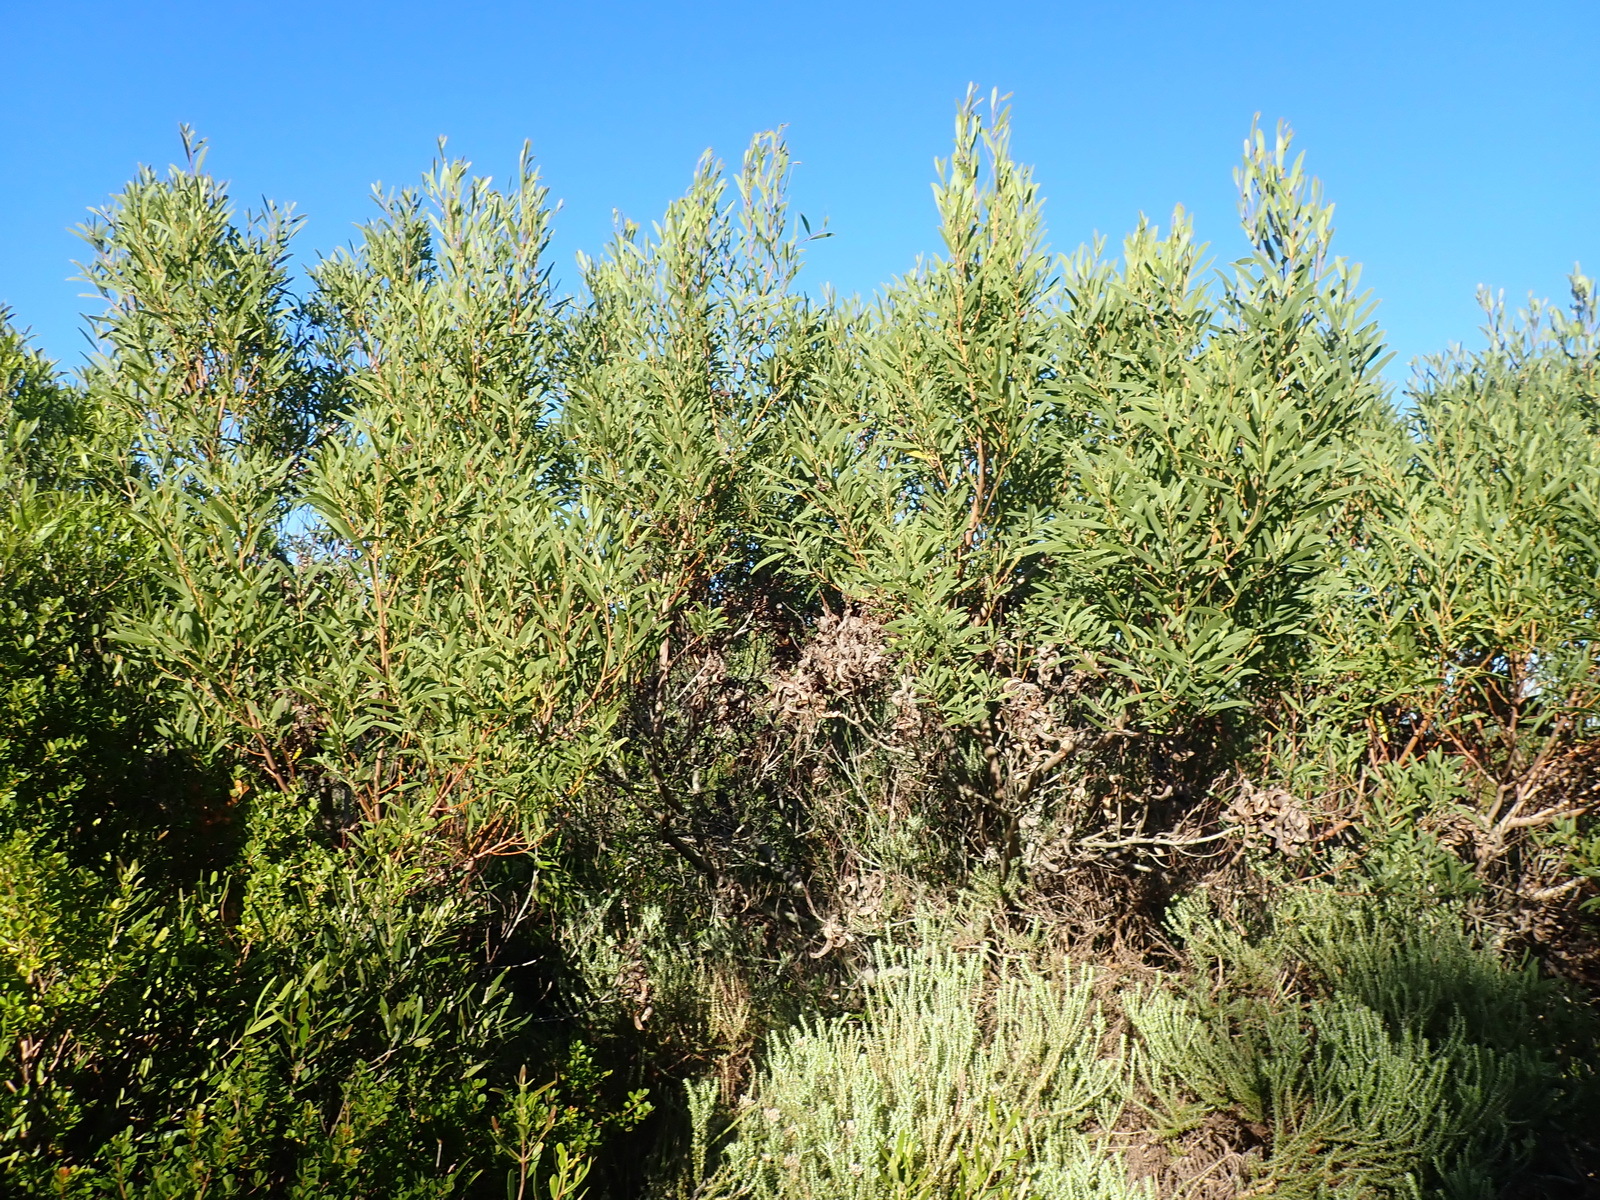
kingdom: Plantae
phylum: Tracheophyta
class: Magnoliopsida
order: Fabales
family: Fabaceae
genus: Acacia
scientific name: Acacia cyclops
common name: Coastal wattle
